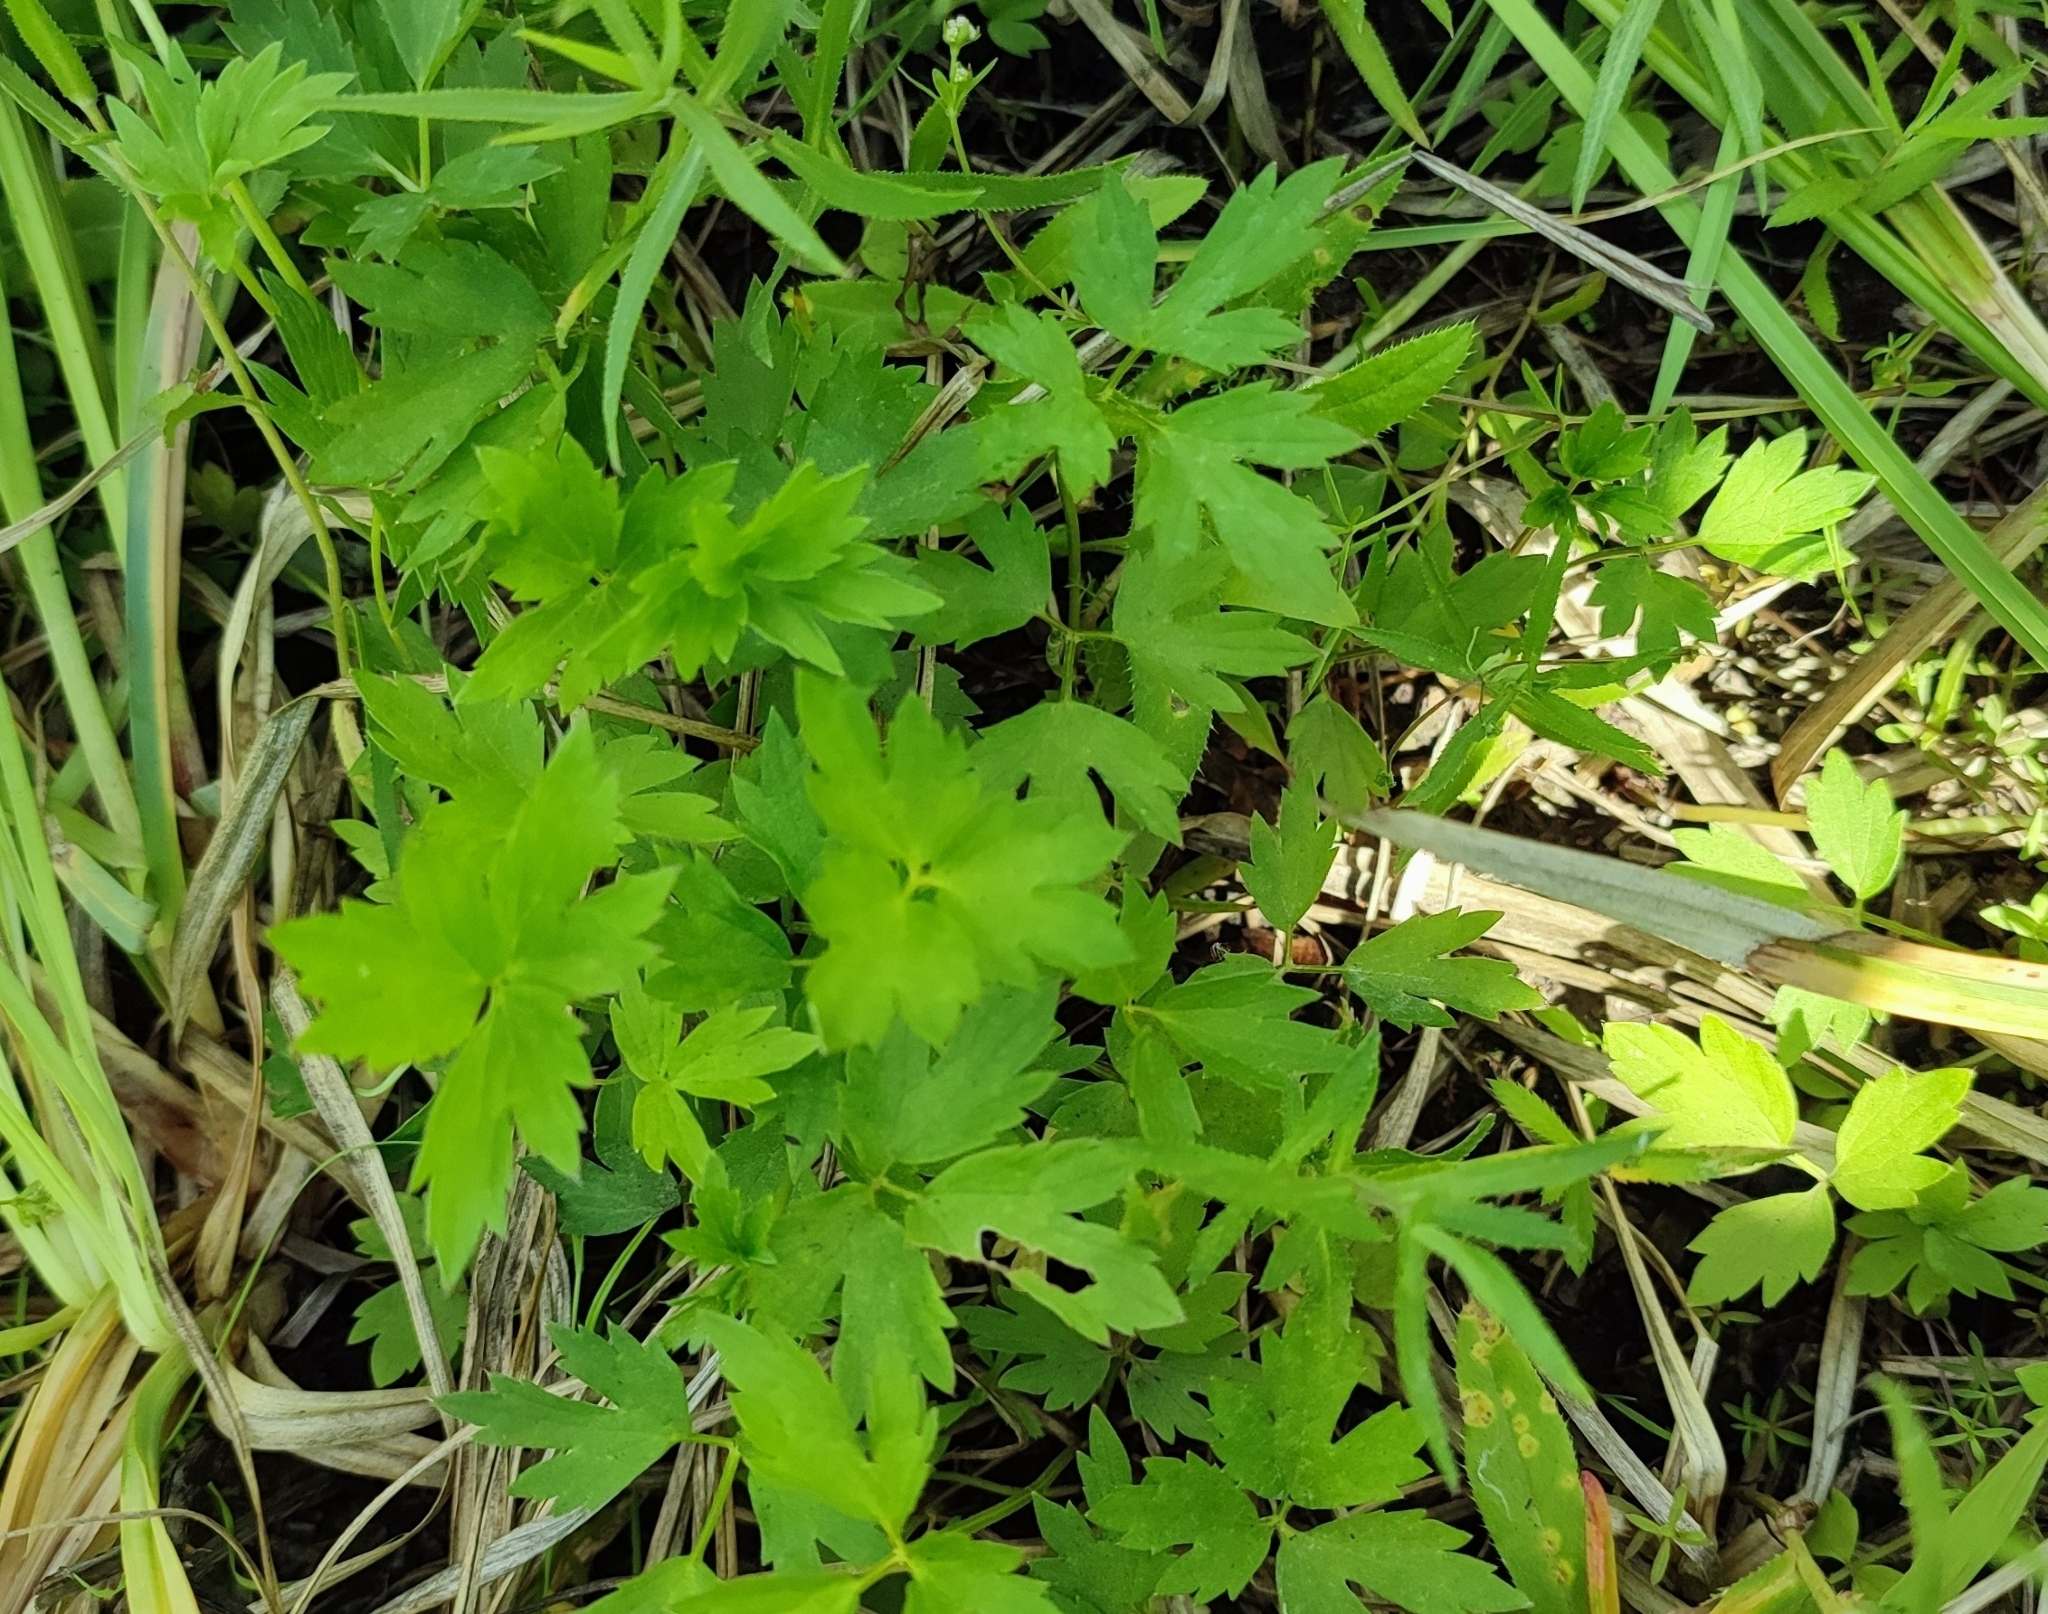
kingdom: Plantae
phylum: Tracheophyta
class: Magnoliopsida
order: Ranunculales
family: Ranunculaceae
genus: Ranunculus
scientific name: Ranunculus repens
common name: Creeping buttercup
